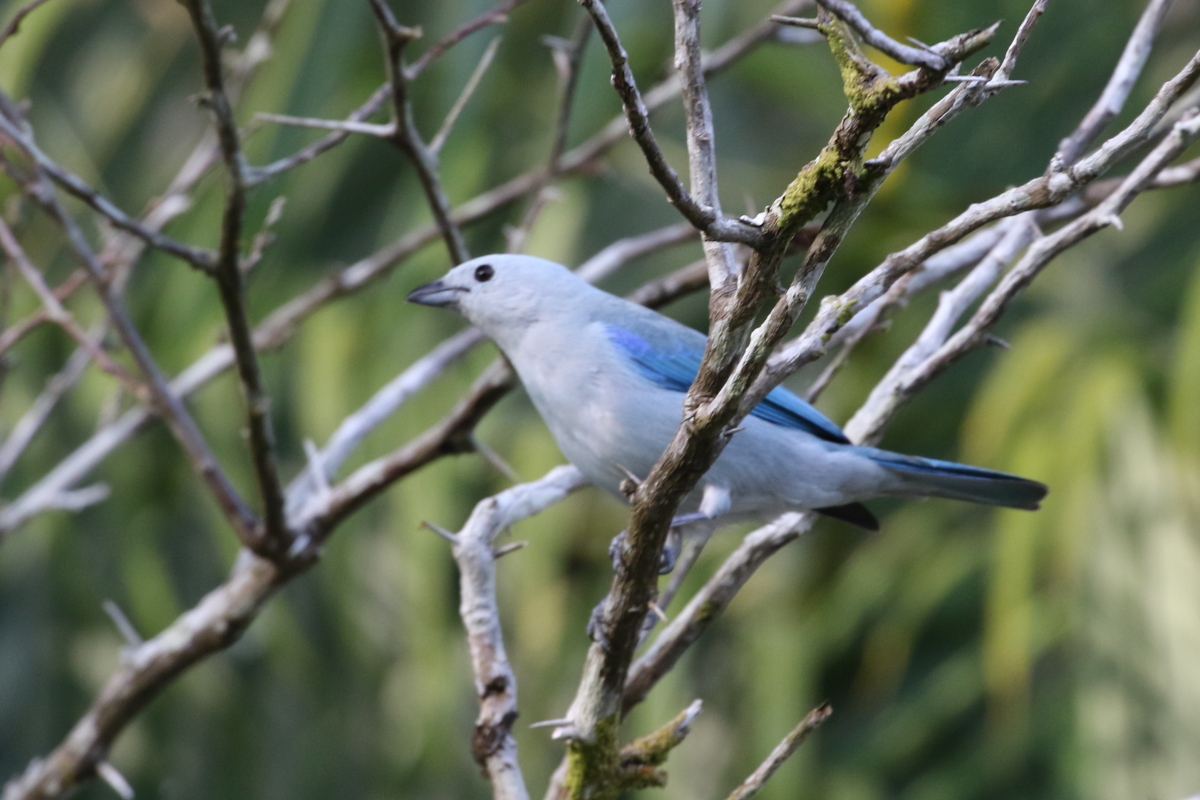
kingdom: Animalia
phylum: Chordata
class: Aves
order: Passeriformes
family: Thraupidae
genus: Thraupis
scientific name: Thraupis episcopus
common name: Blue-grey tanager
